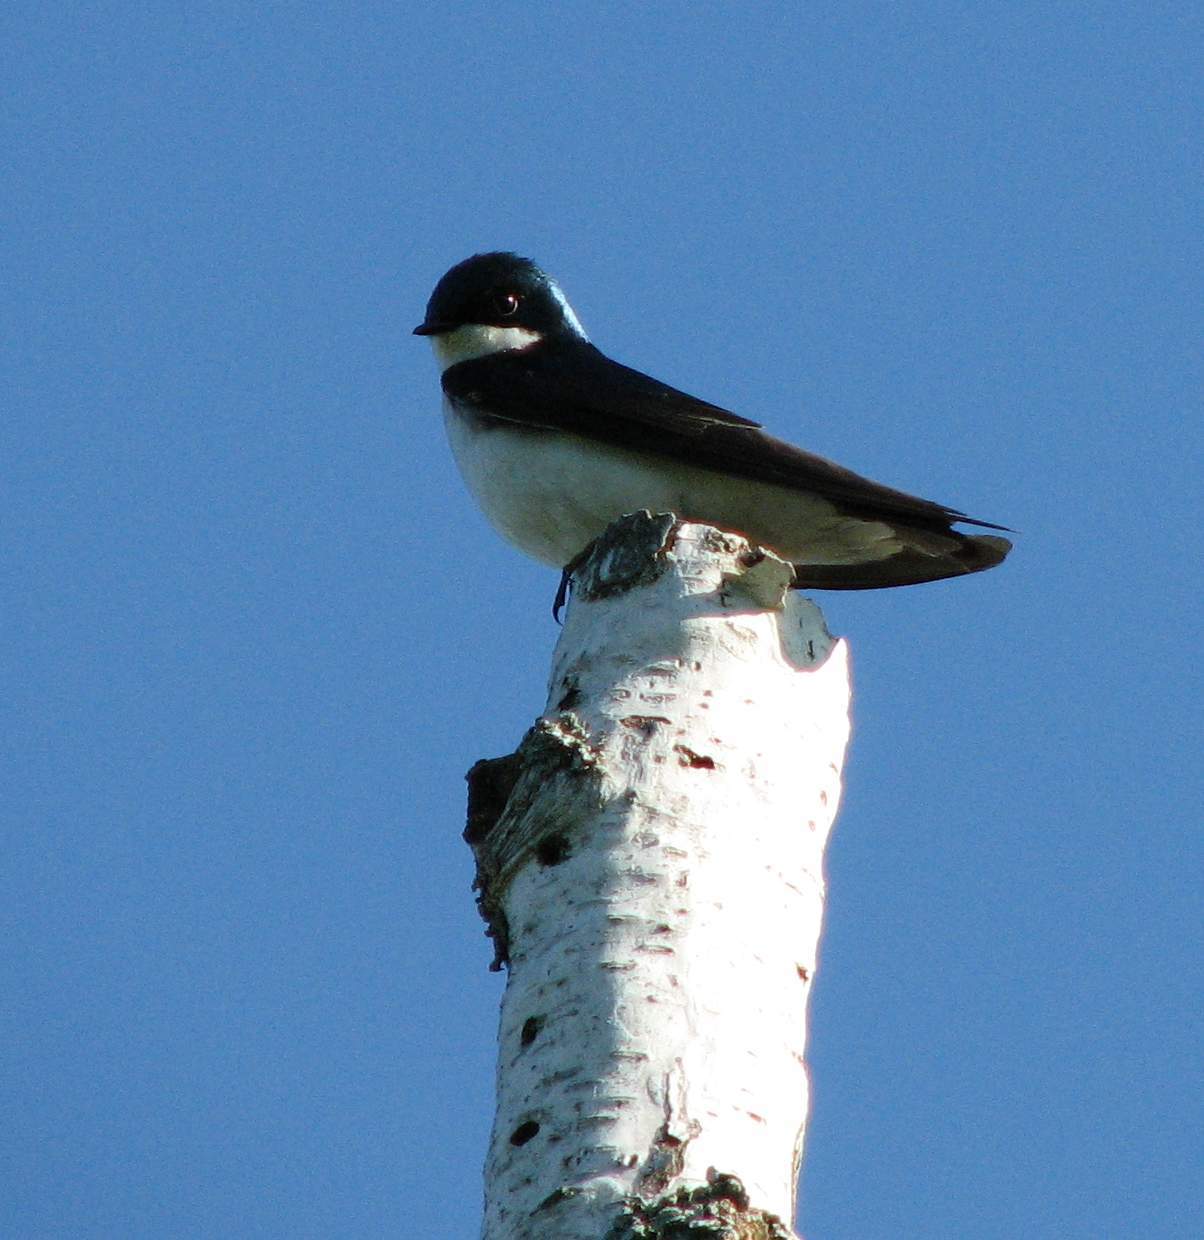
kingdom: Animalia
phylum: Chordata
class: Aves
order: Passeriformes
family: Hirundinidae
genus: Tachycineta
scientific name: Tachycineta bicolor
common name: Tree swallow
